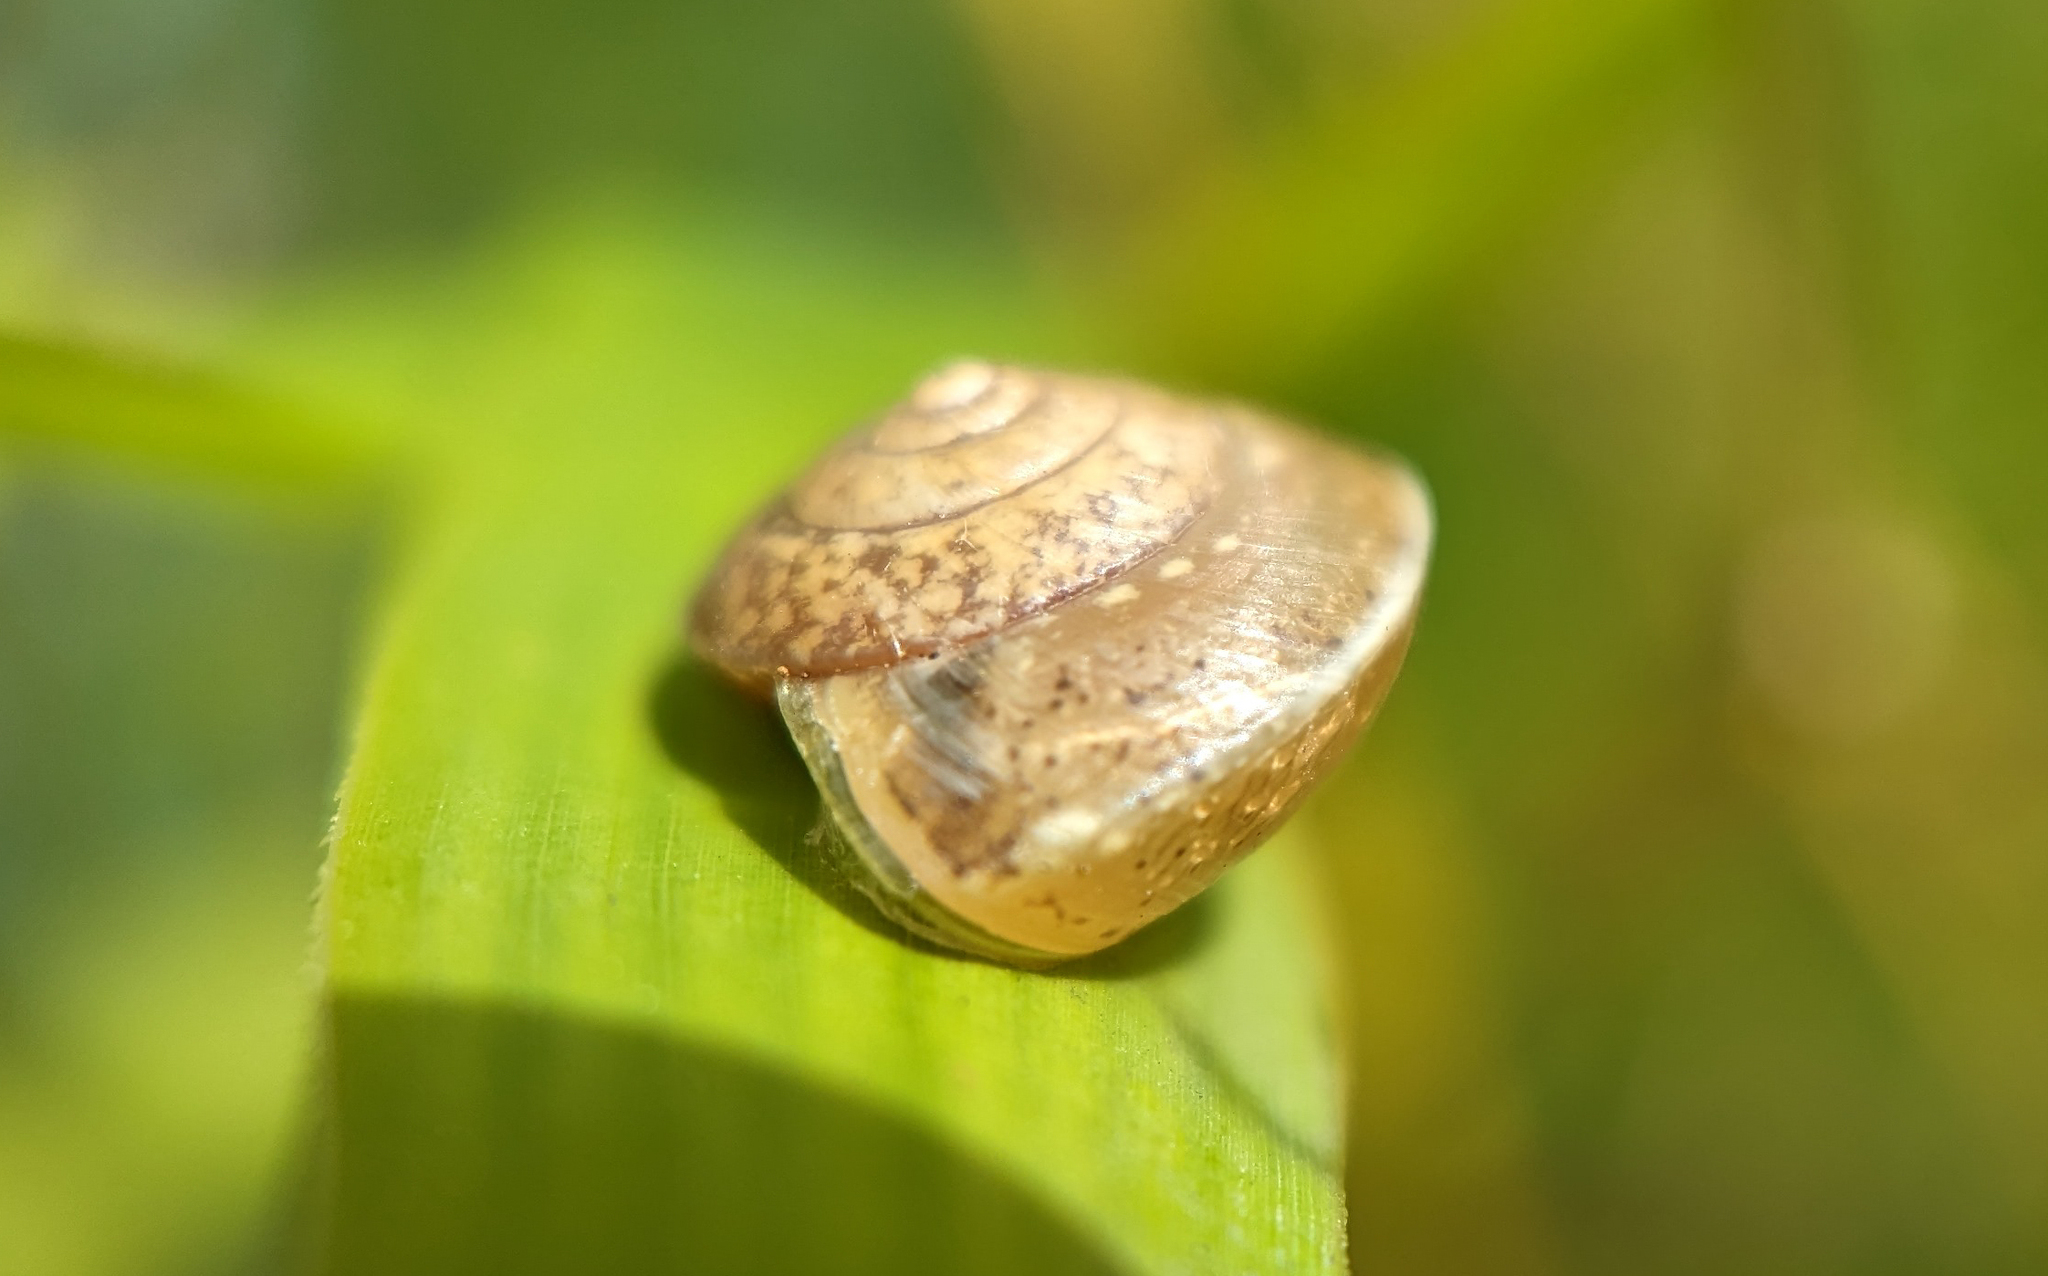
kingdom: Animalia
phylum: Mollusca
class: Gastropoda
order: Stylommatophora
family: Hygromiidae
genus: Hygromia
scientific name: Hygromia cinctella
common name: Girdled snail
